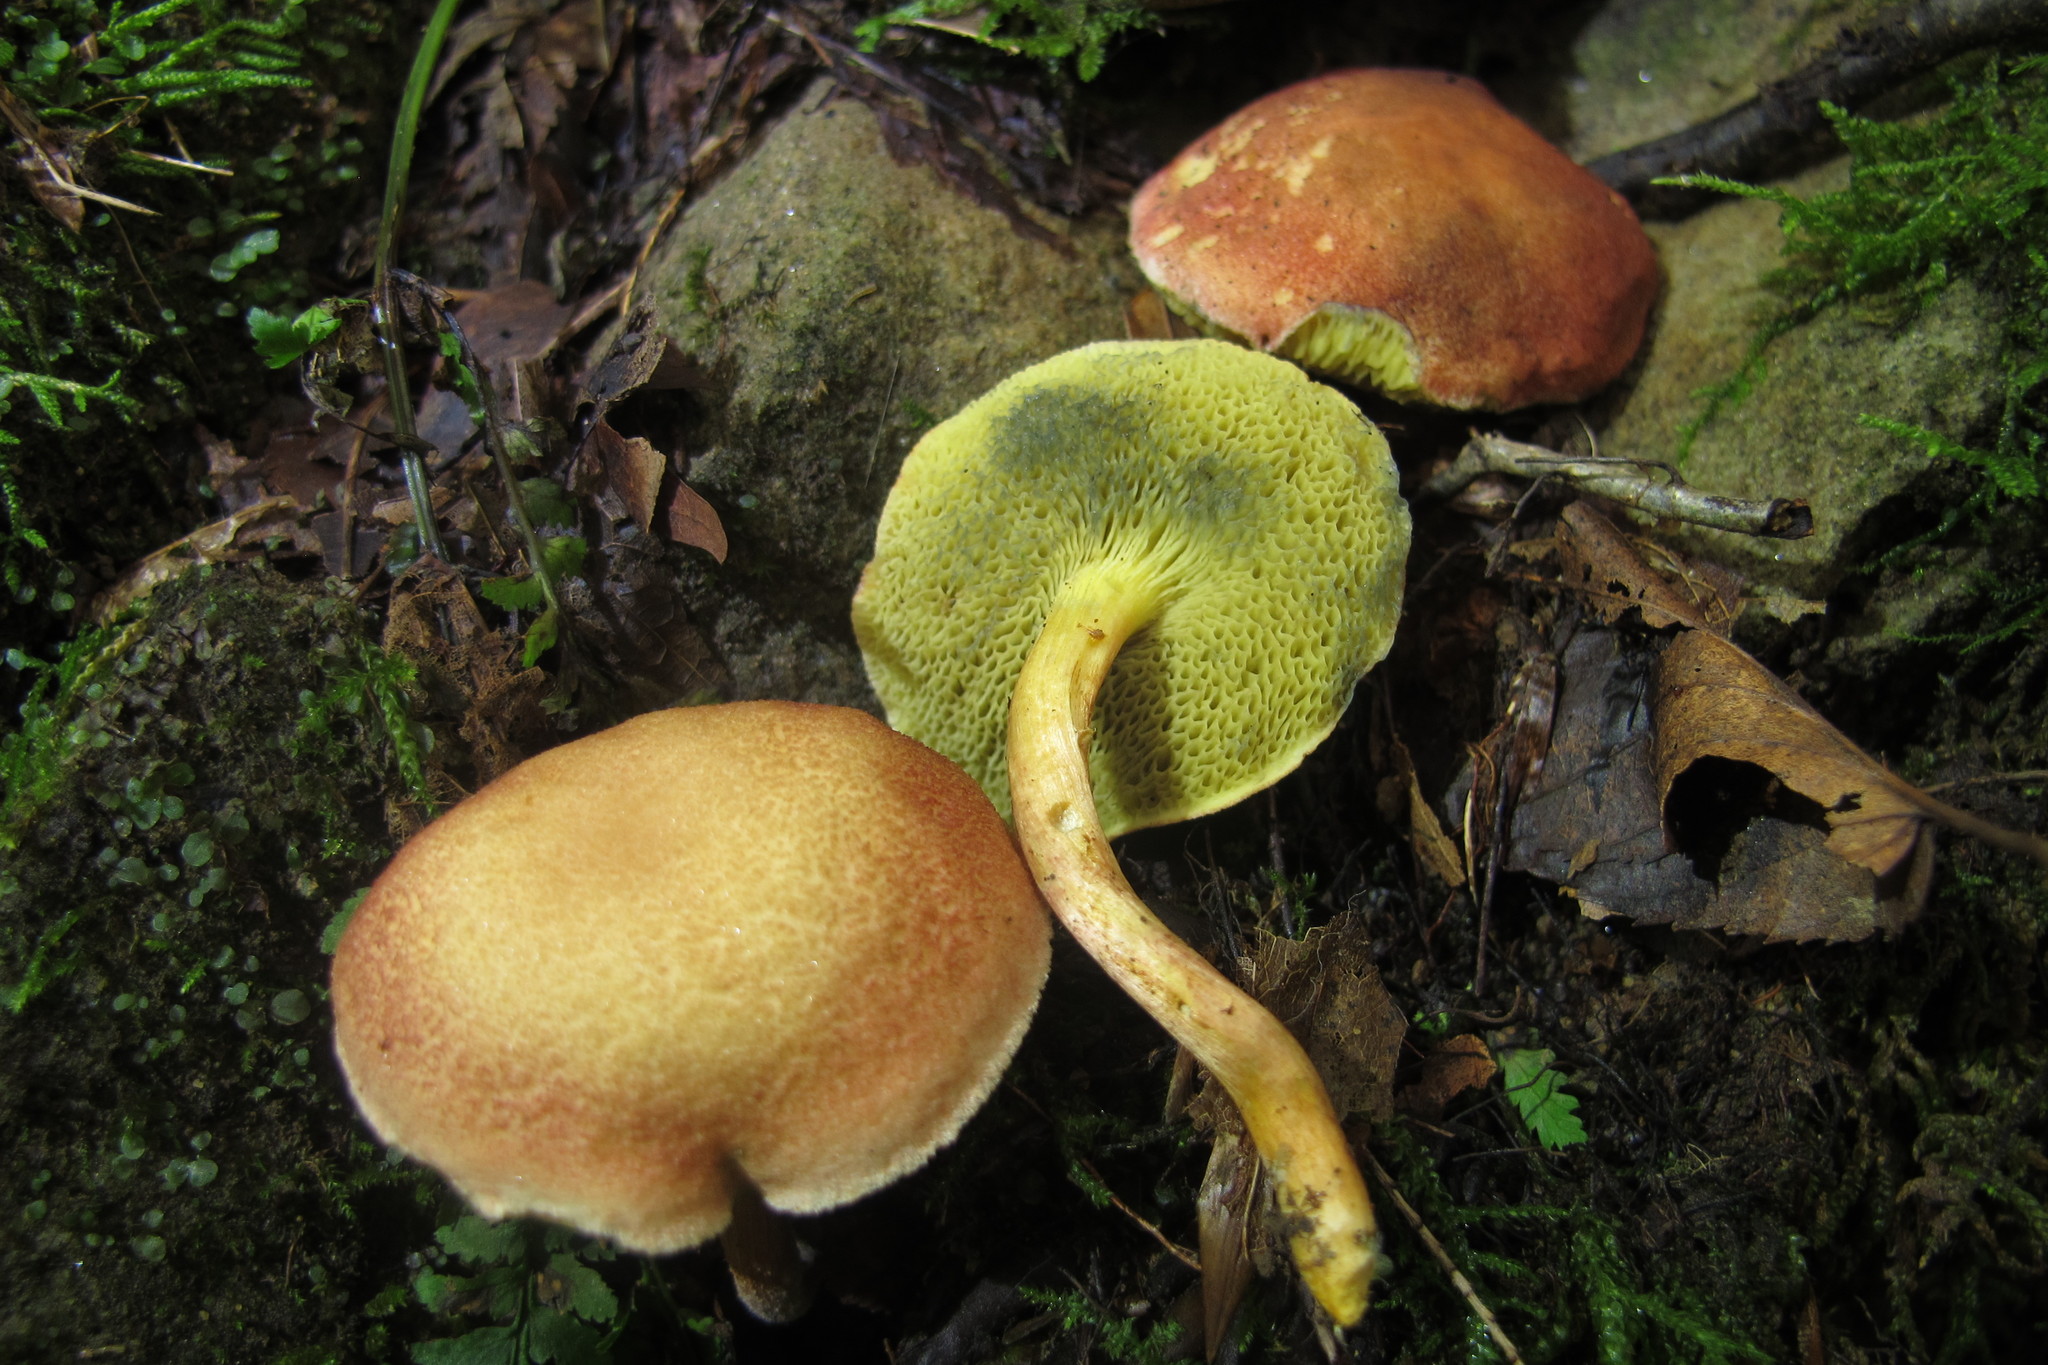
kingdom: Fungi
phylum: Basidiomycota
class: Agaricomycetes
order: Boletales
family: Boletaceae
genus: Hortiboletus
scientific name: Hortiboletus rubellus
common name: Ruby bolete
